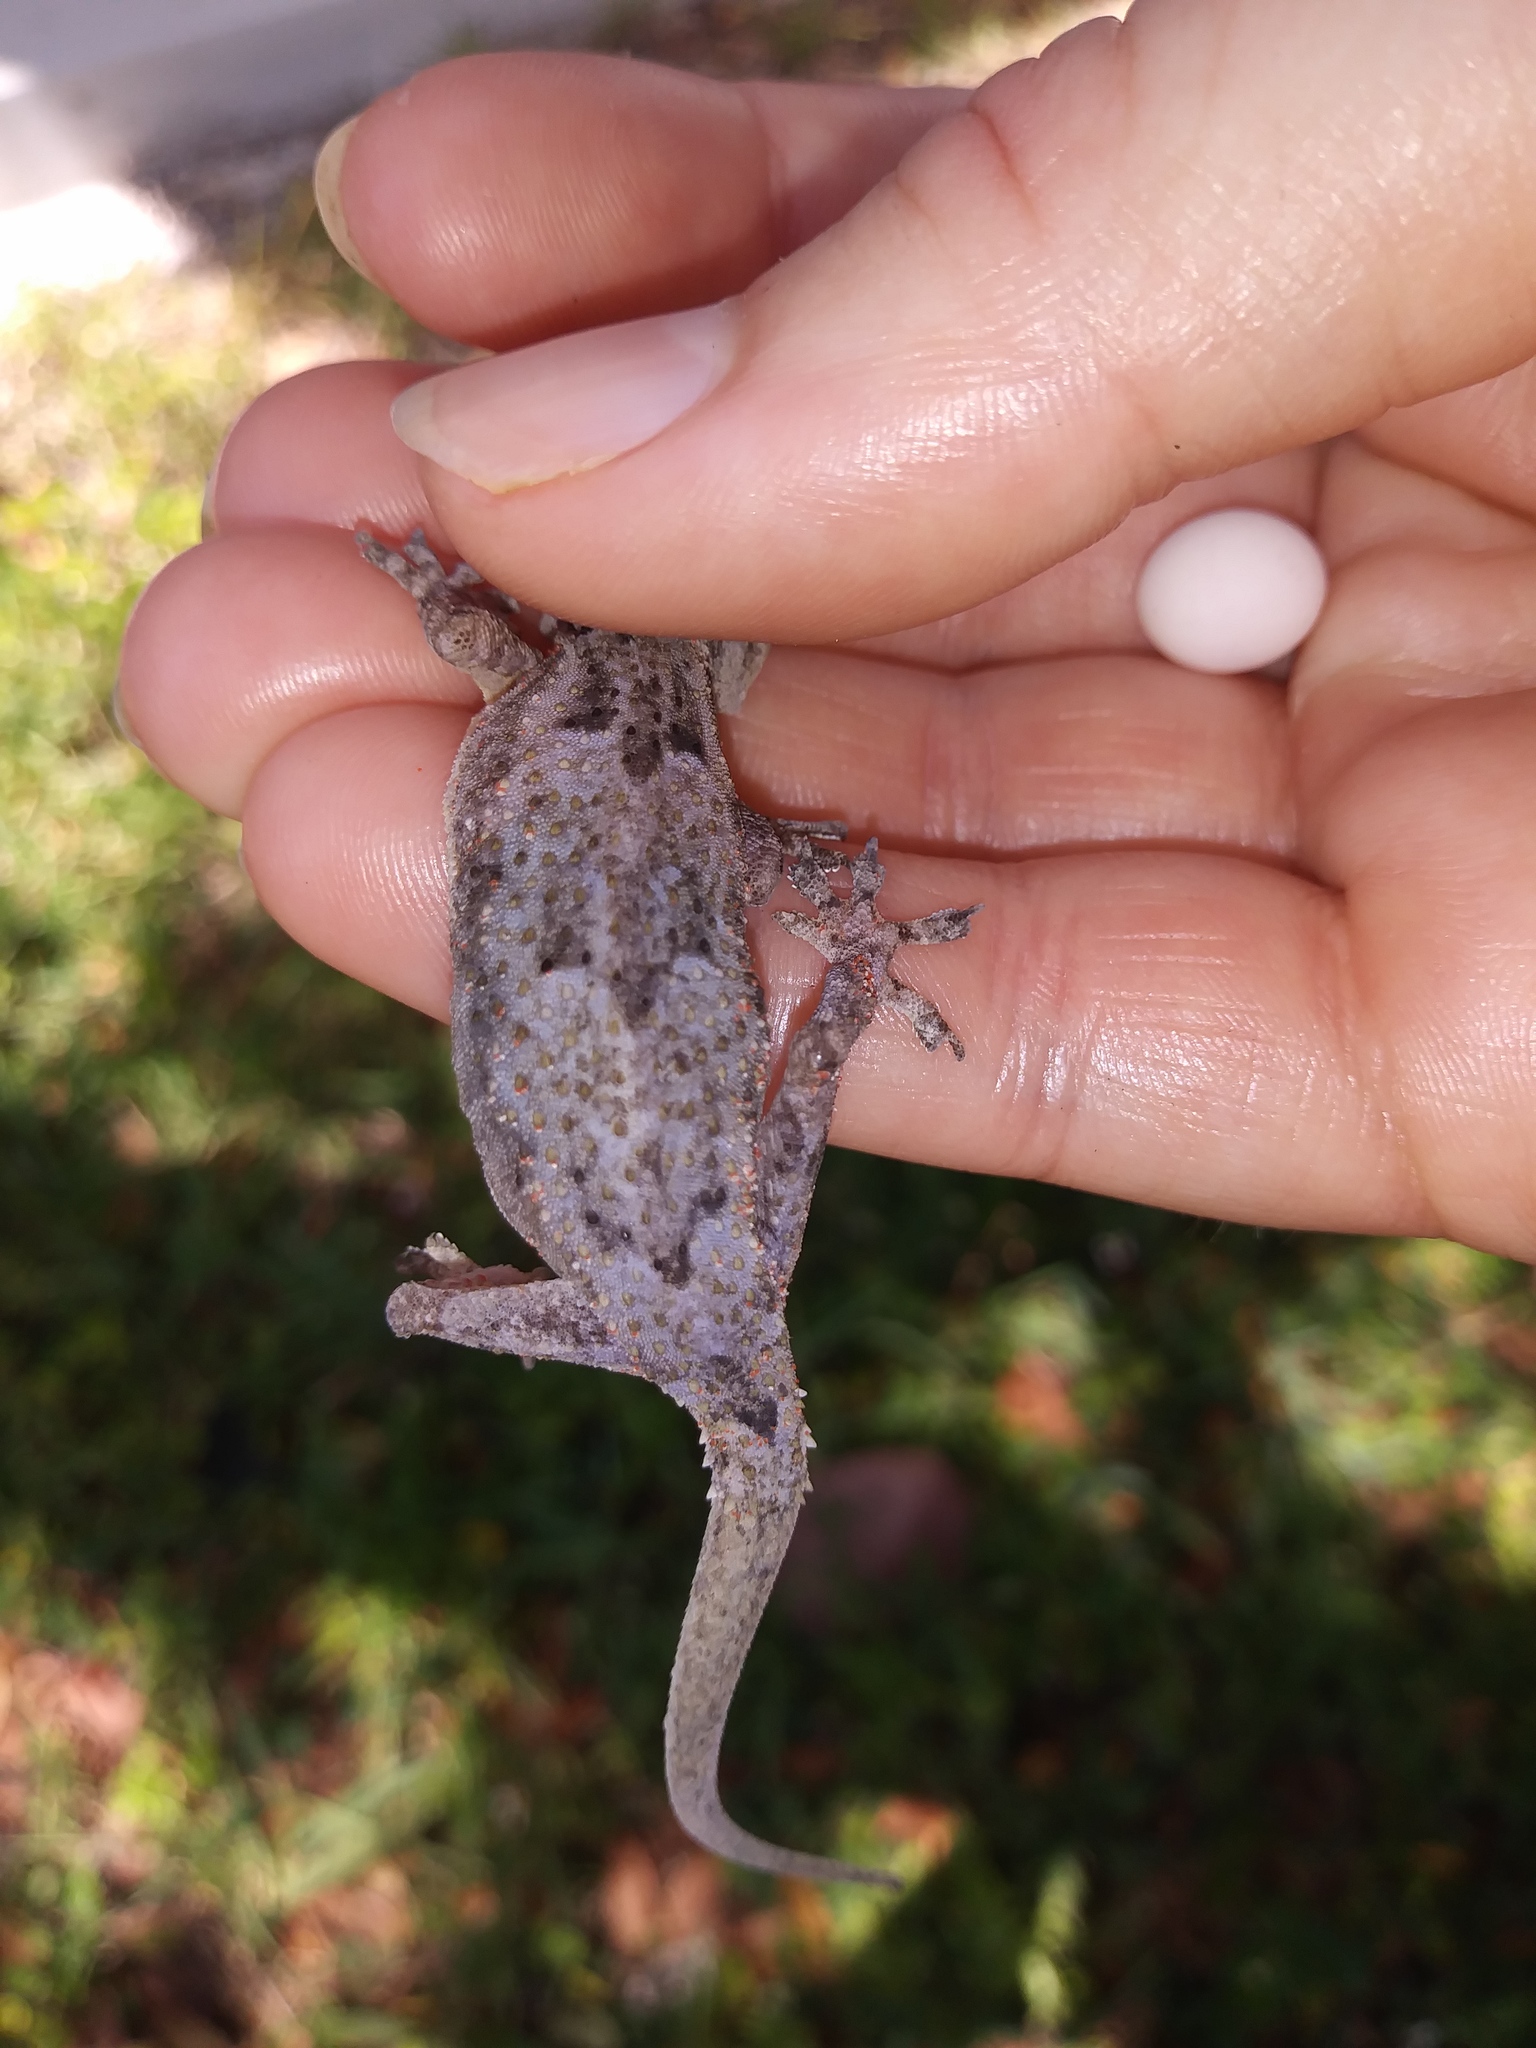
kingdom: Animalia
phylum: Chordata
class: Squamata
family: Gekkonidae
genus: Hemidactylus
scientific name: Hemidactylus mabouia
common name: House gecko
